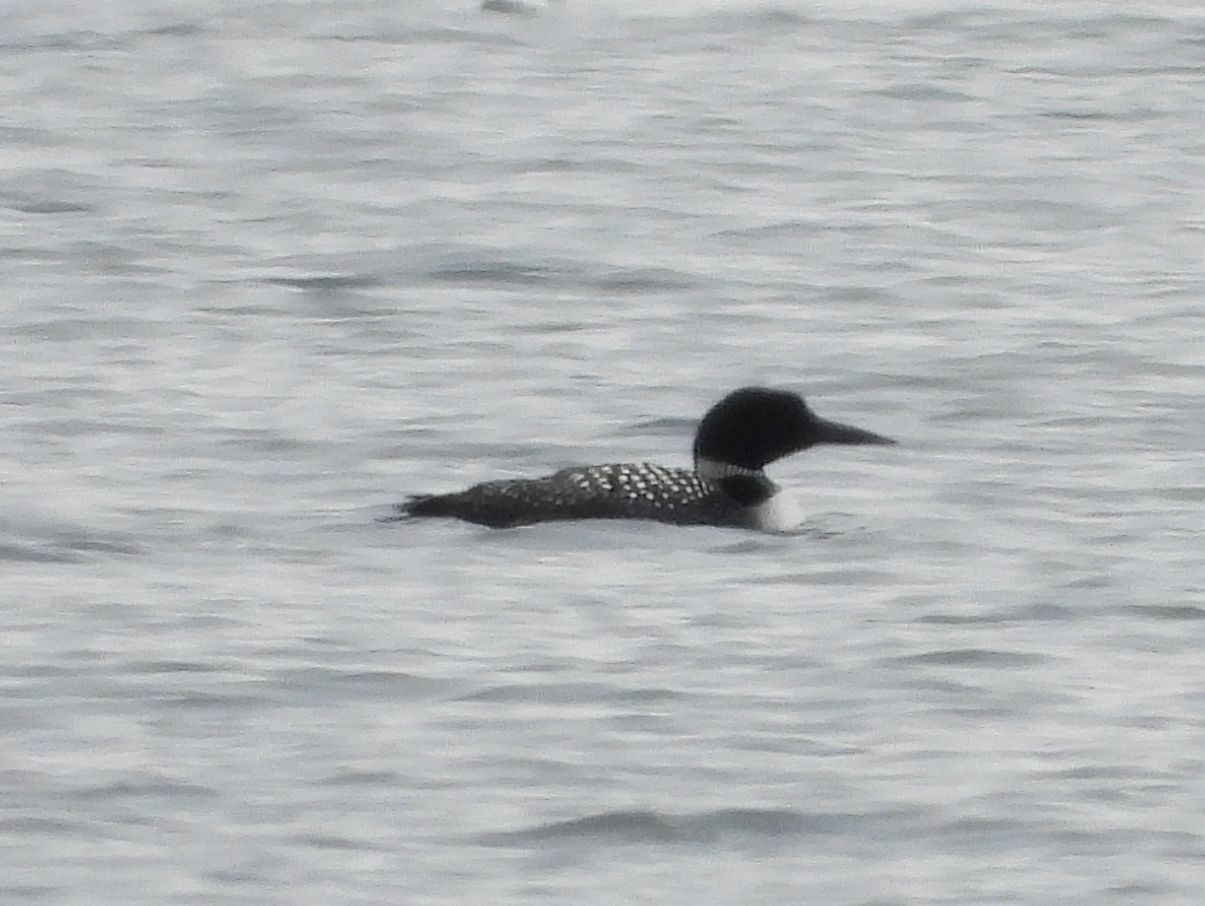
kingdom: Animalia
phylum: Chordata
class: Aves
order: Gaviiformes
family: Gaviidae
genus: Gavia
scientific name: Gavia immer
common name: Common loon
